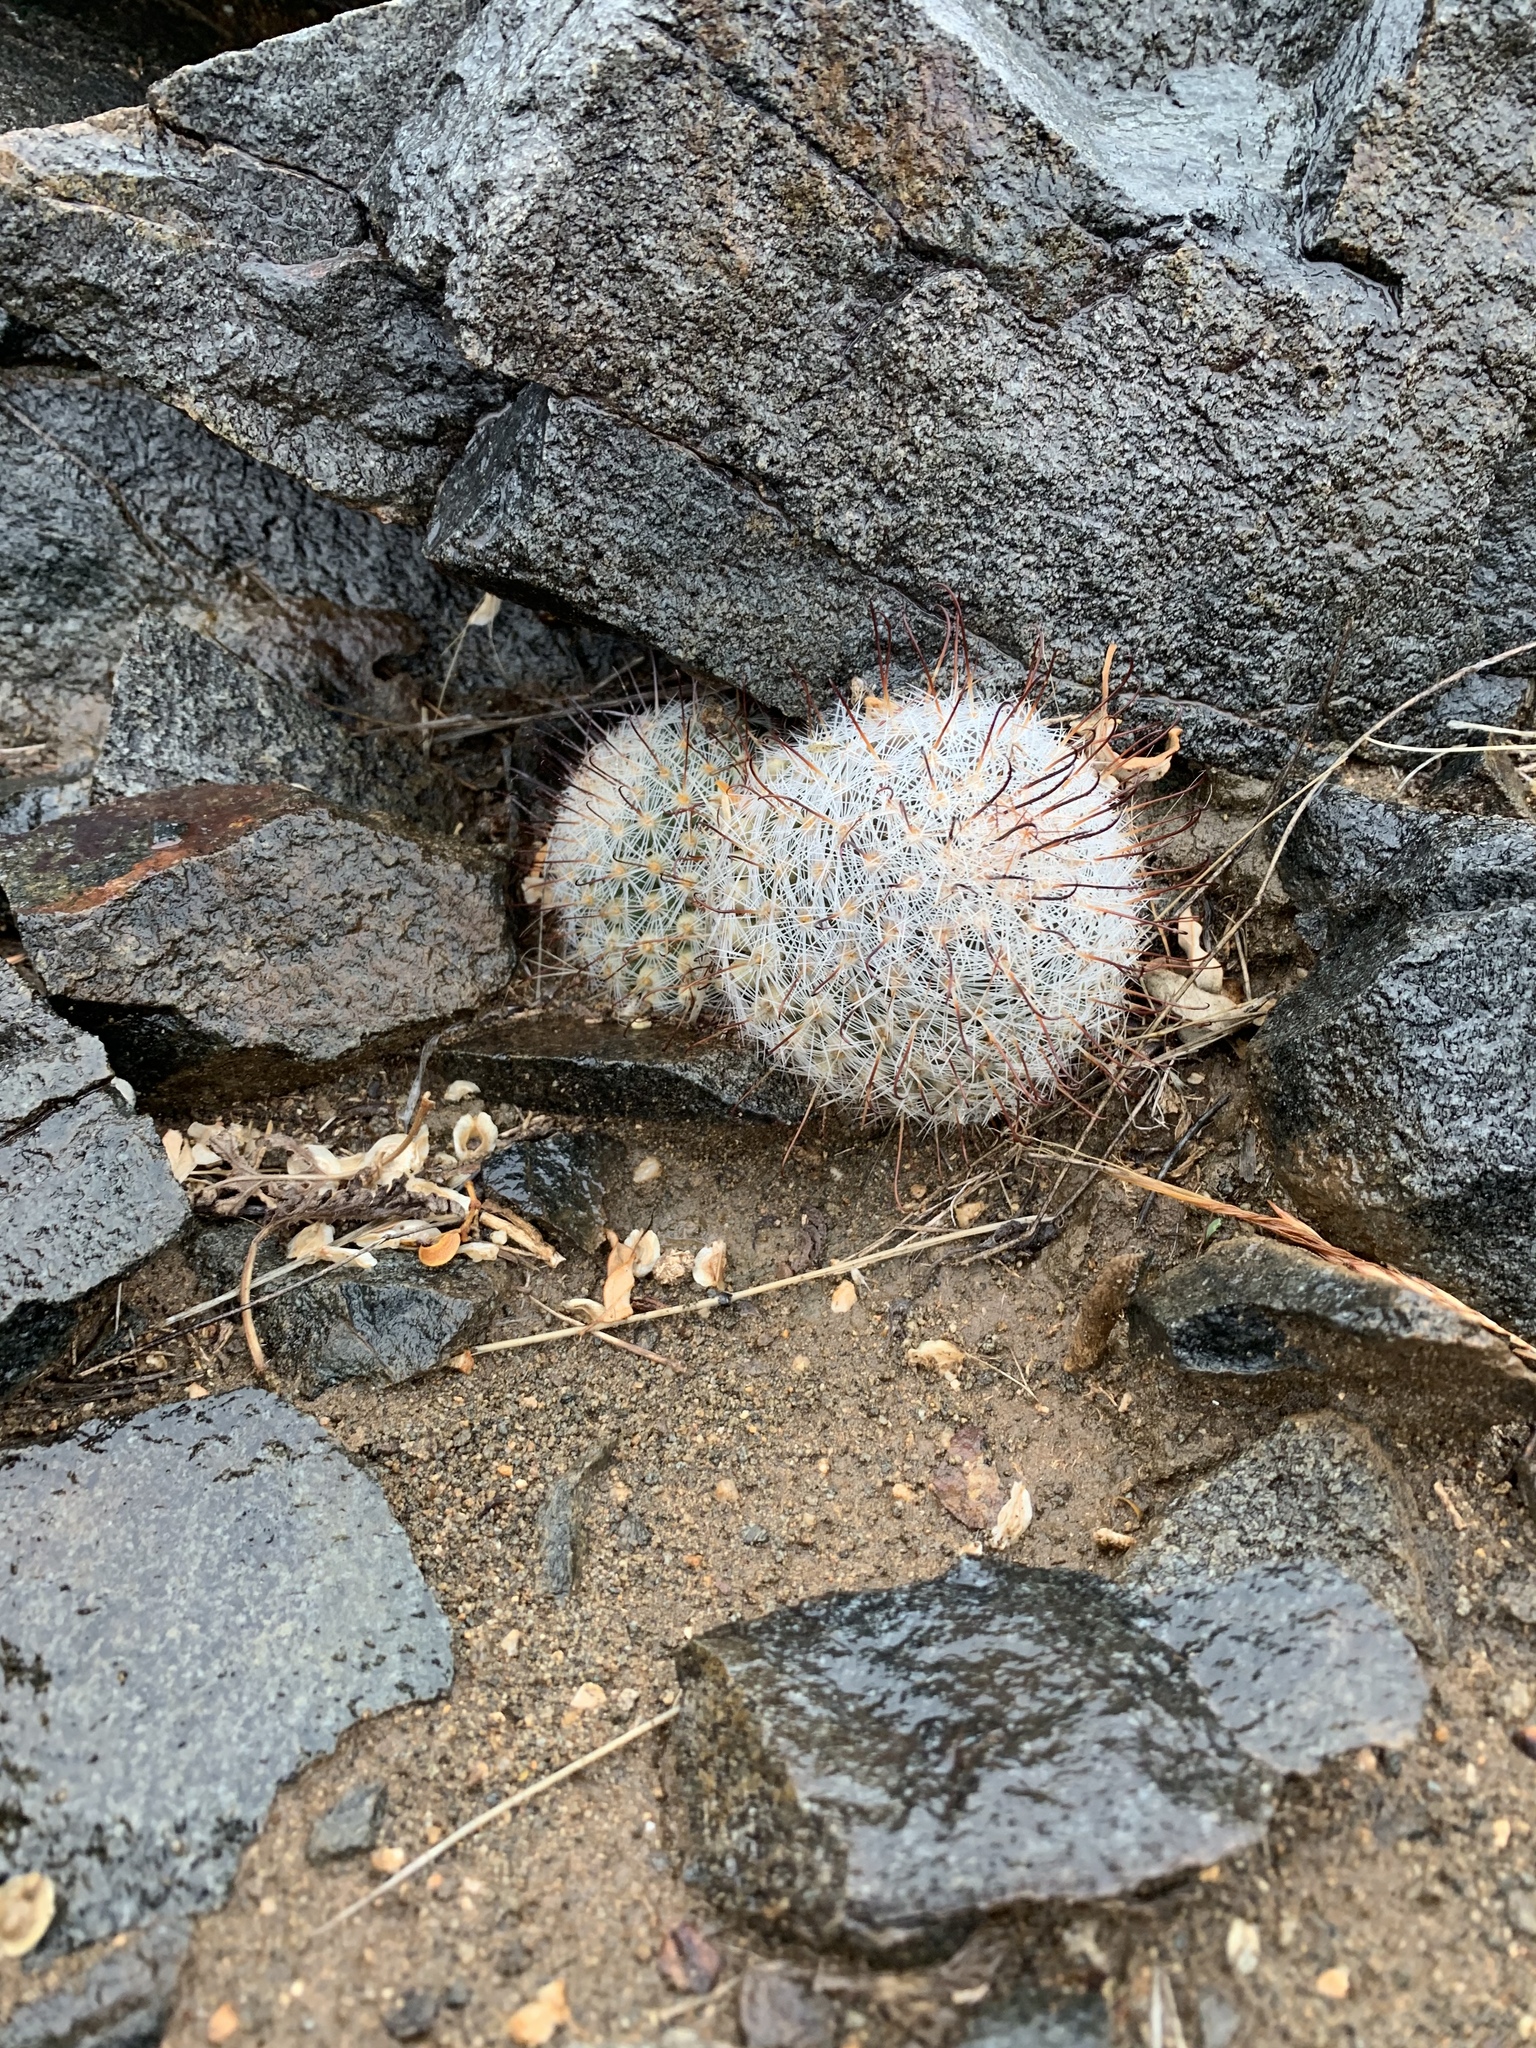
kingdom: Plantae
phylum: Tracheophyta
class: Magnoliopsida
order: Caryophyllales
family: Cactaceae
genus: Cochemiea
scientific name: Cochemiea grahamii
